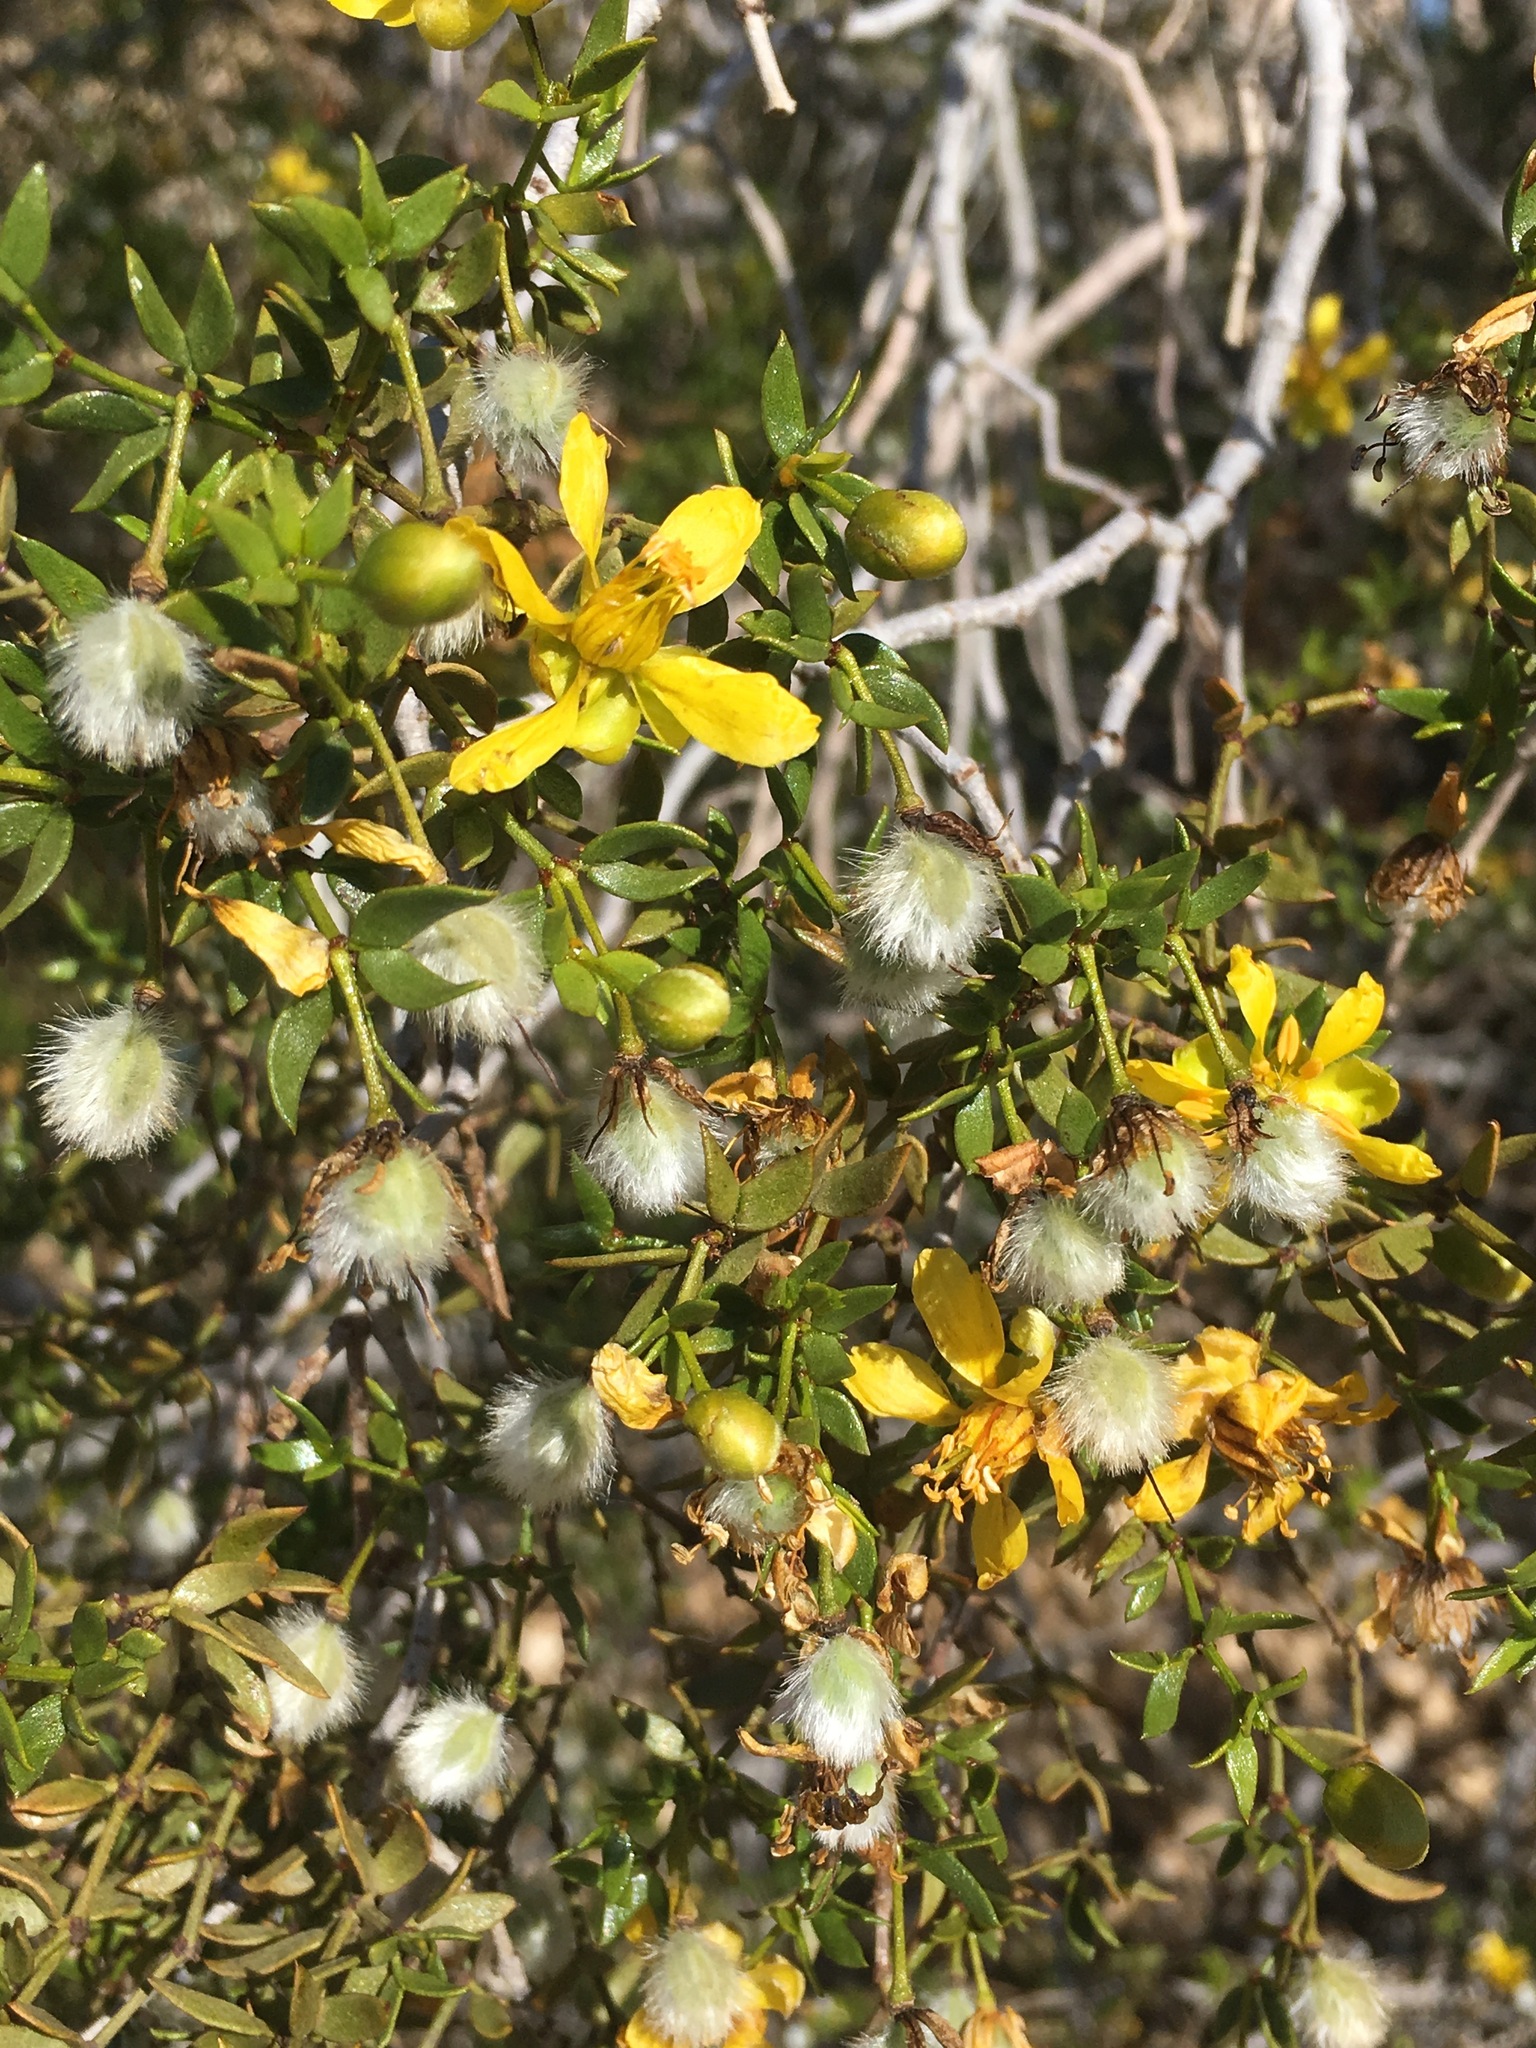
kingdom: Plantae
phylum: Tracheophyta
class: Magnoliopsida
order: Zygophyllales
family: Zygophyllaceae
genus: Larrea
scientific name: Larrea tridentata
